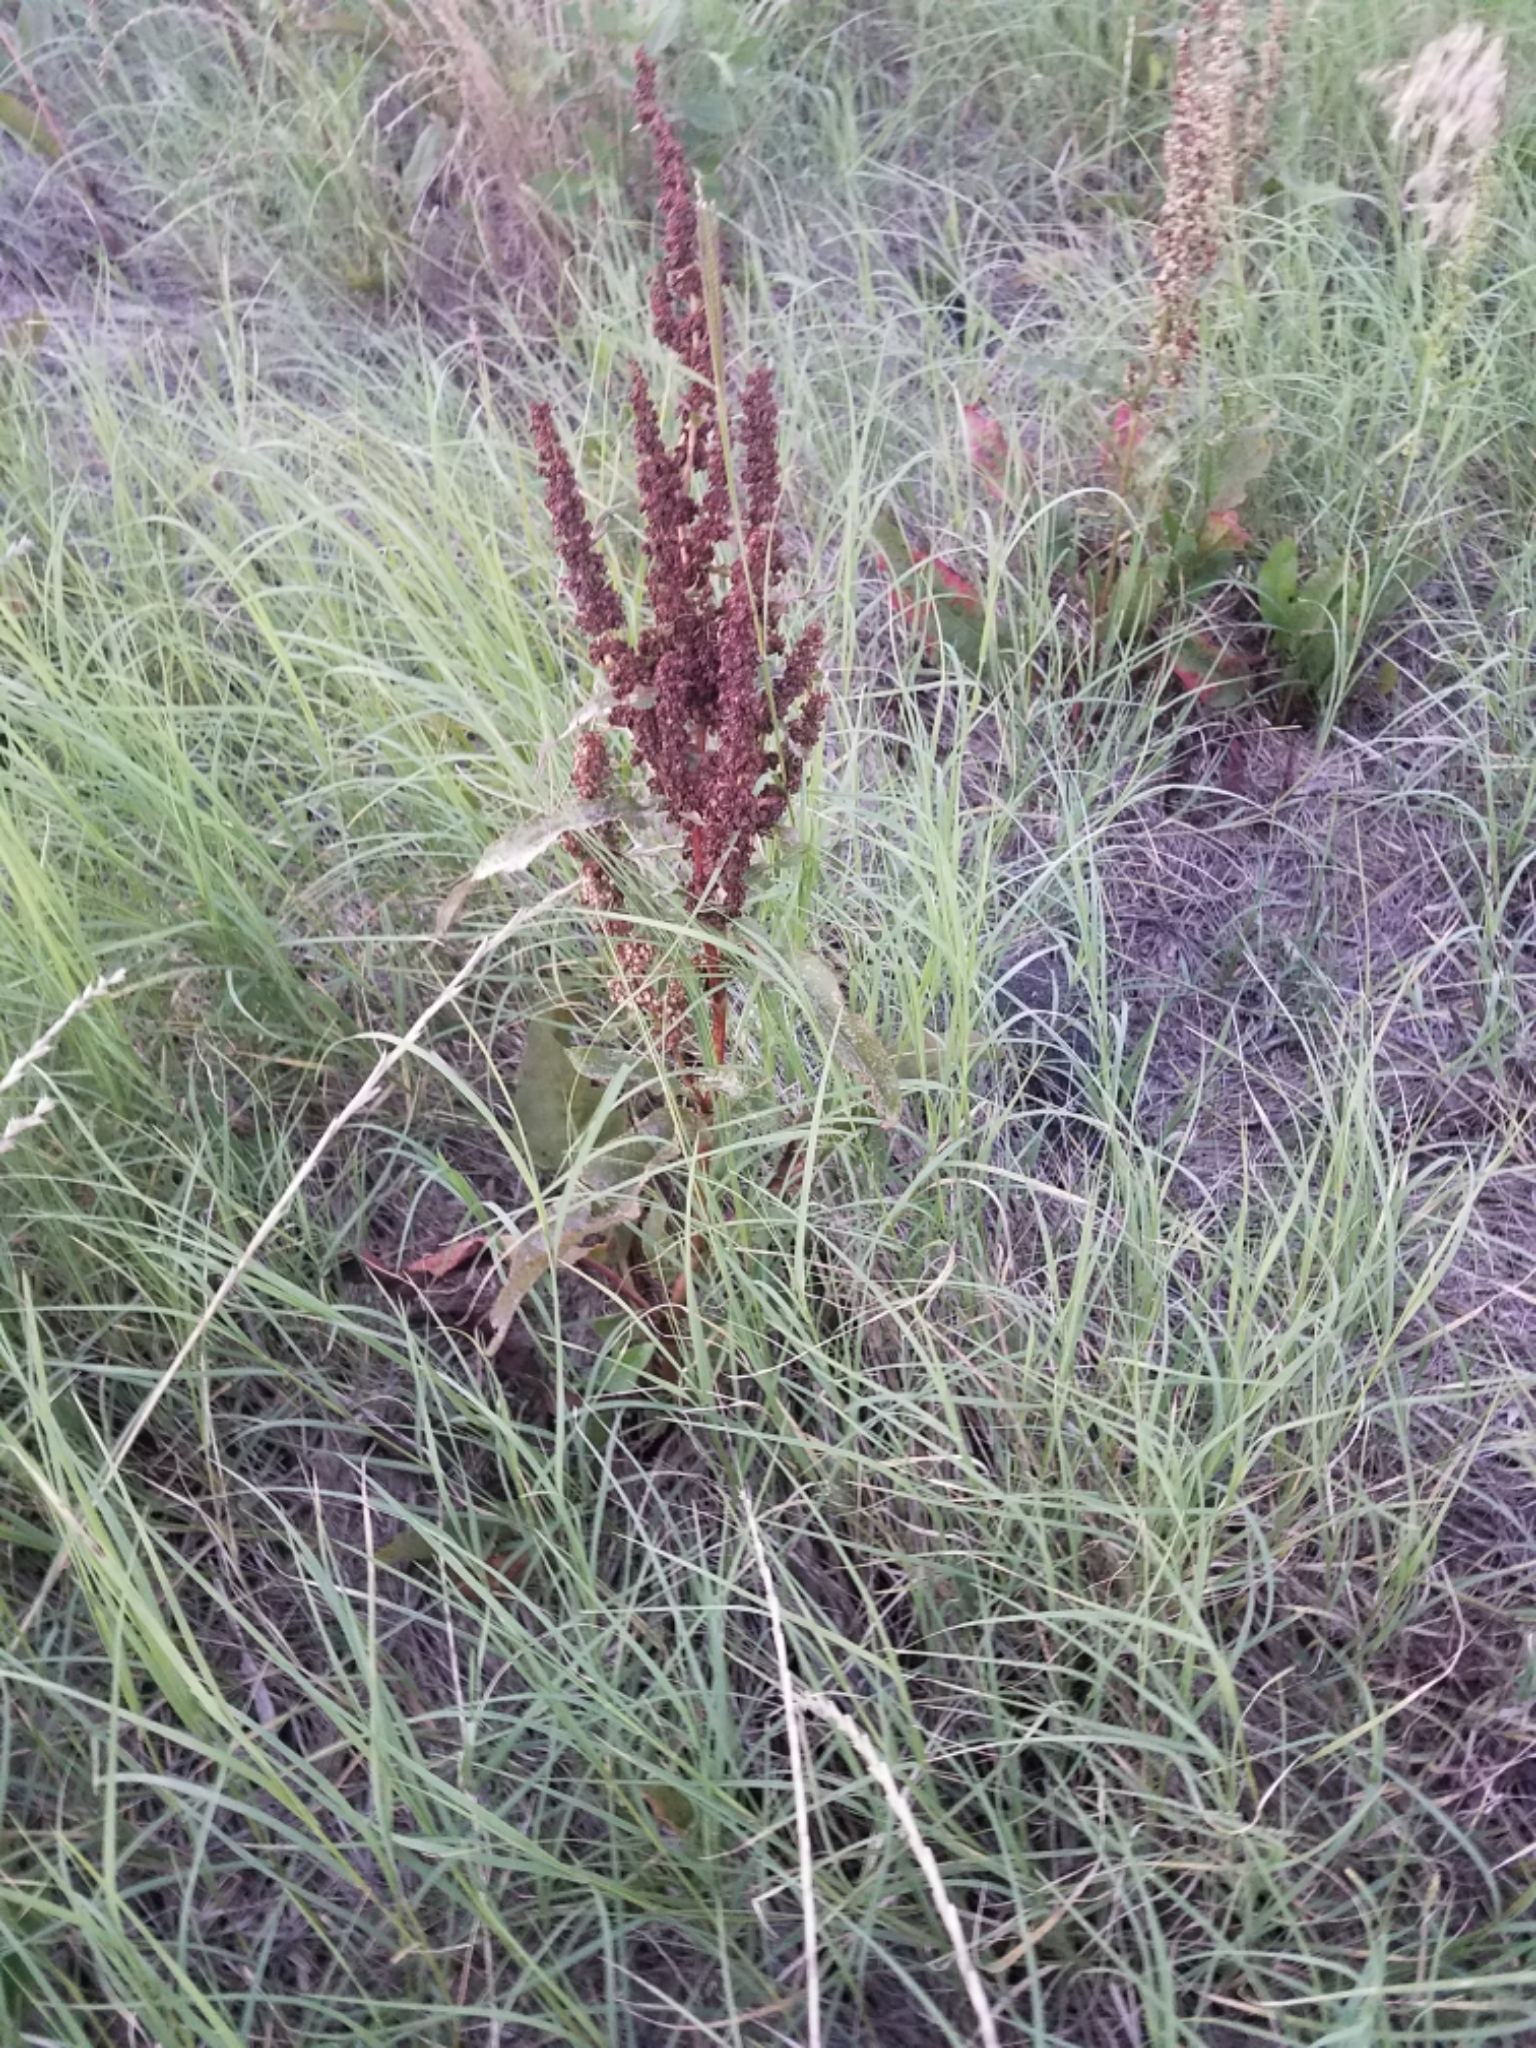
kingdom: Plantae
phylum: Tracheophyta
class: Magnoliopsida
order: Caryophyllales
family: Polygonaceae
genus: Rumex
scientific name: Rumex crispus
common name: Curled dock
